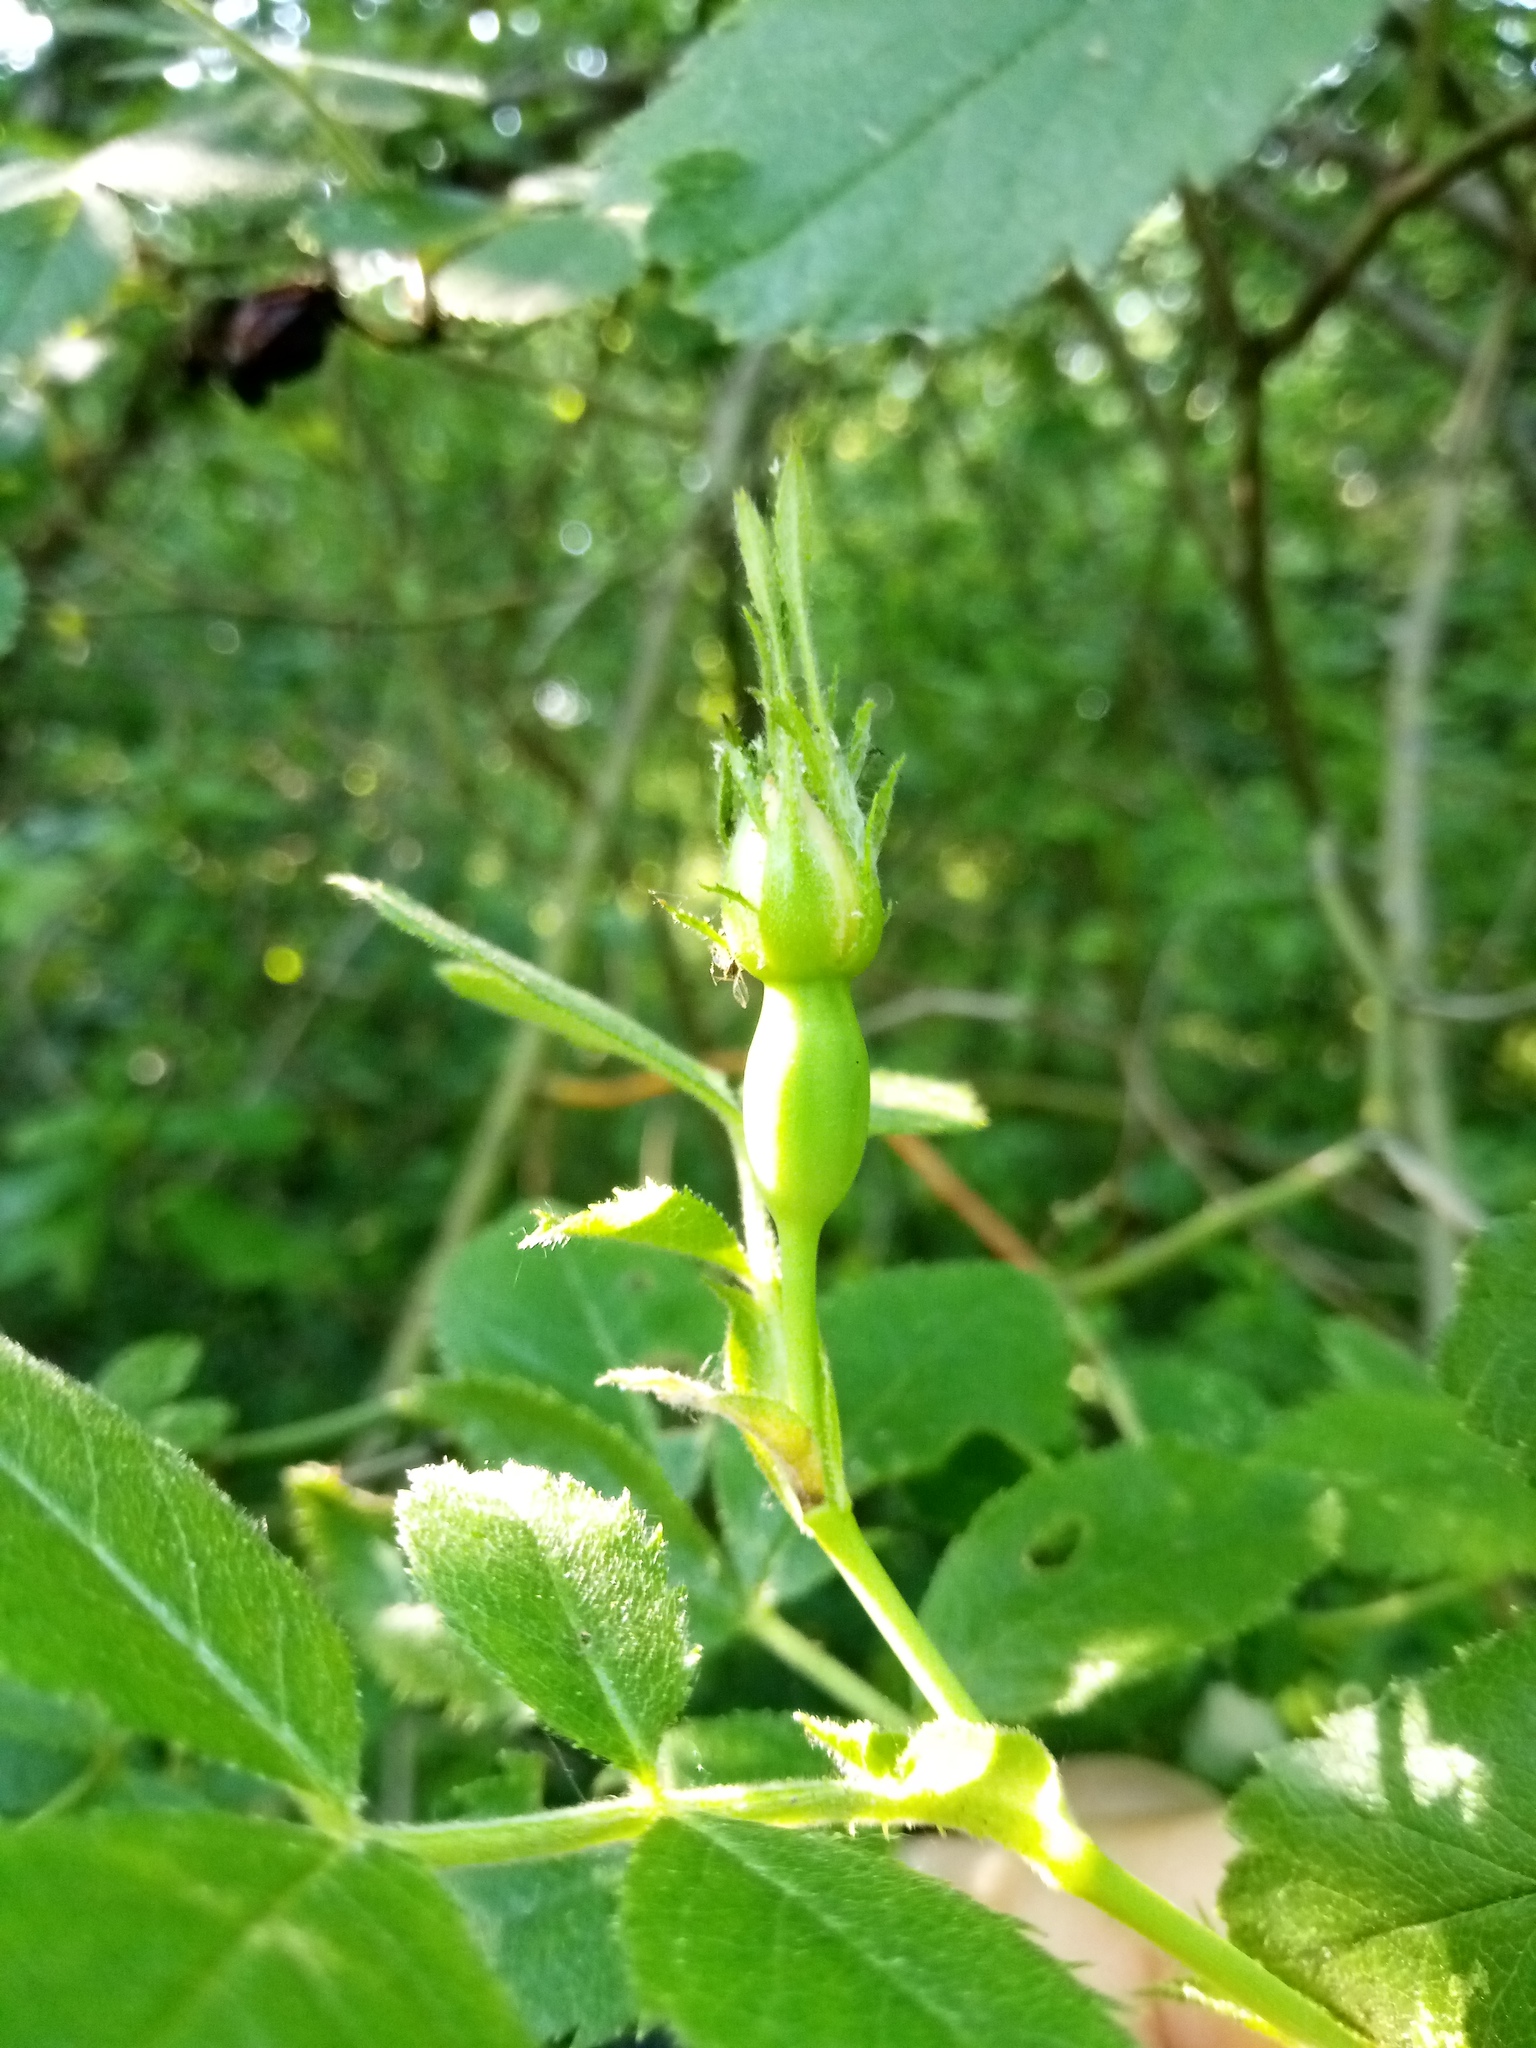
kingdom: Plantae
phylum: Tracheophyta
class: Magnoliopsida
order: Rosales
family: Rosaceae
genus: Rosa
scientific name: Rosa agrestis
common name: Fieldbriar
